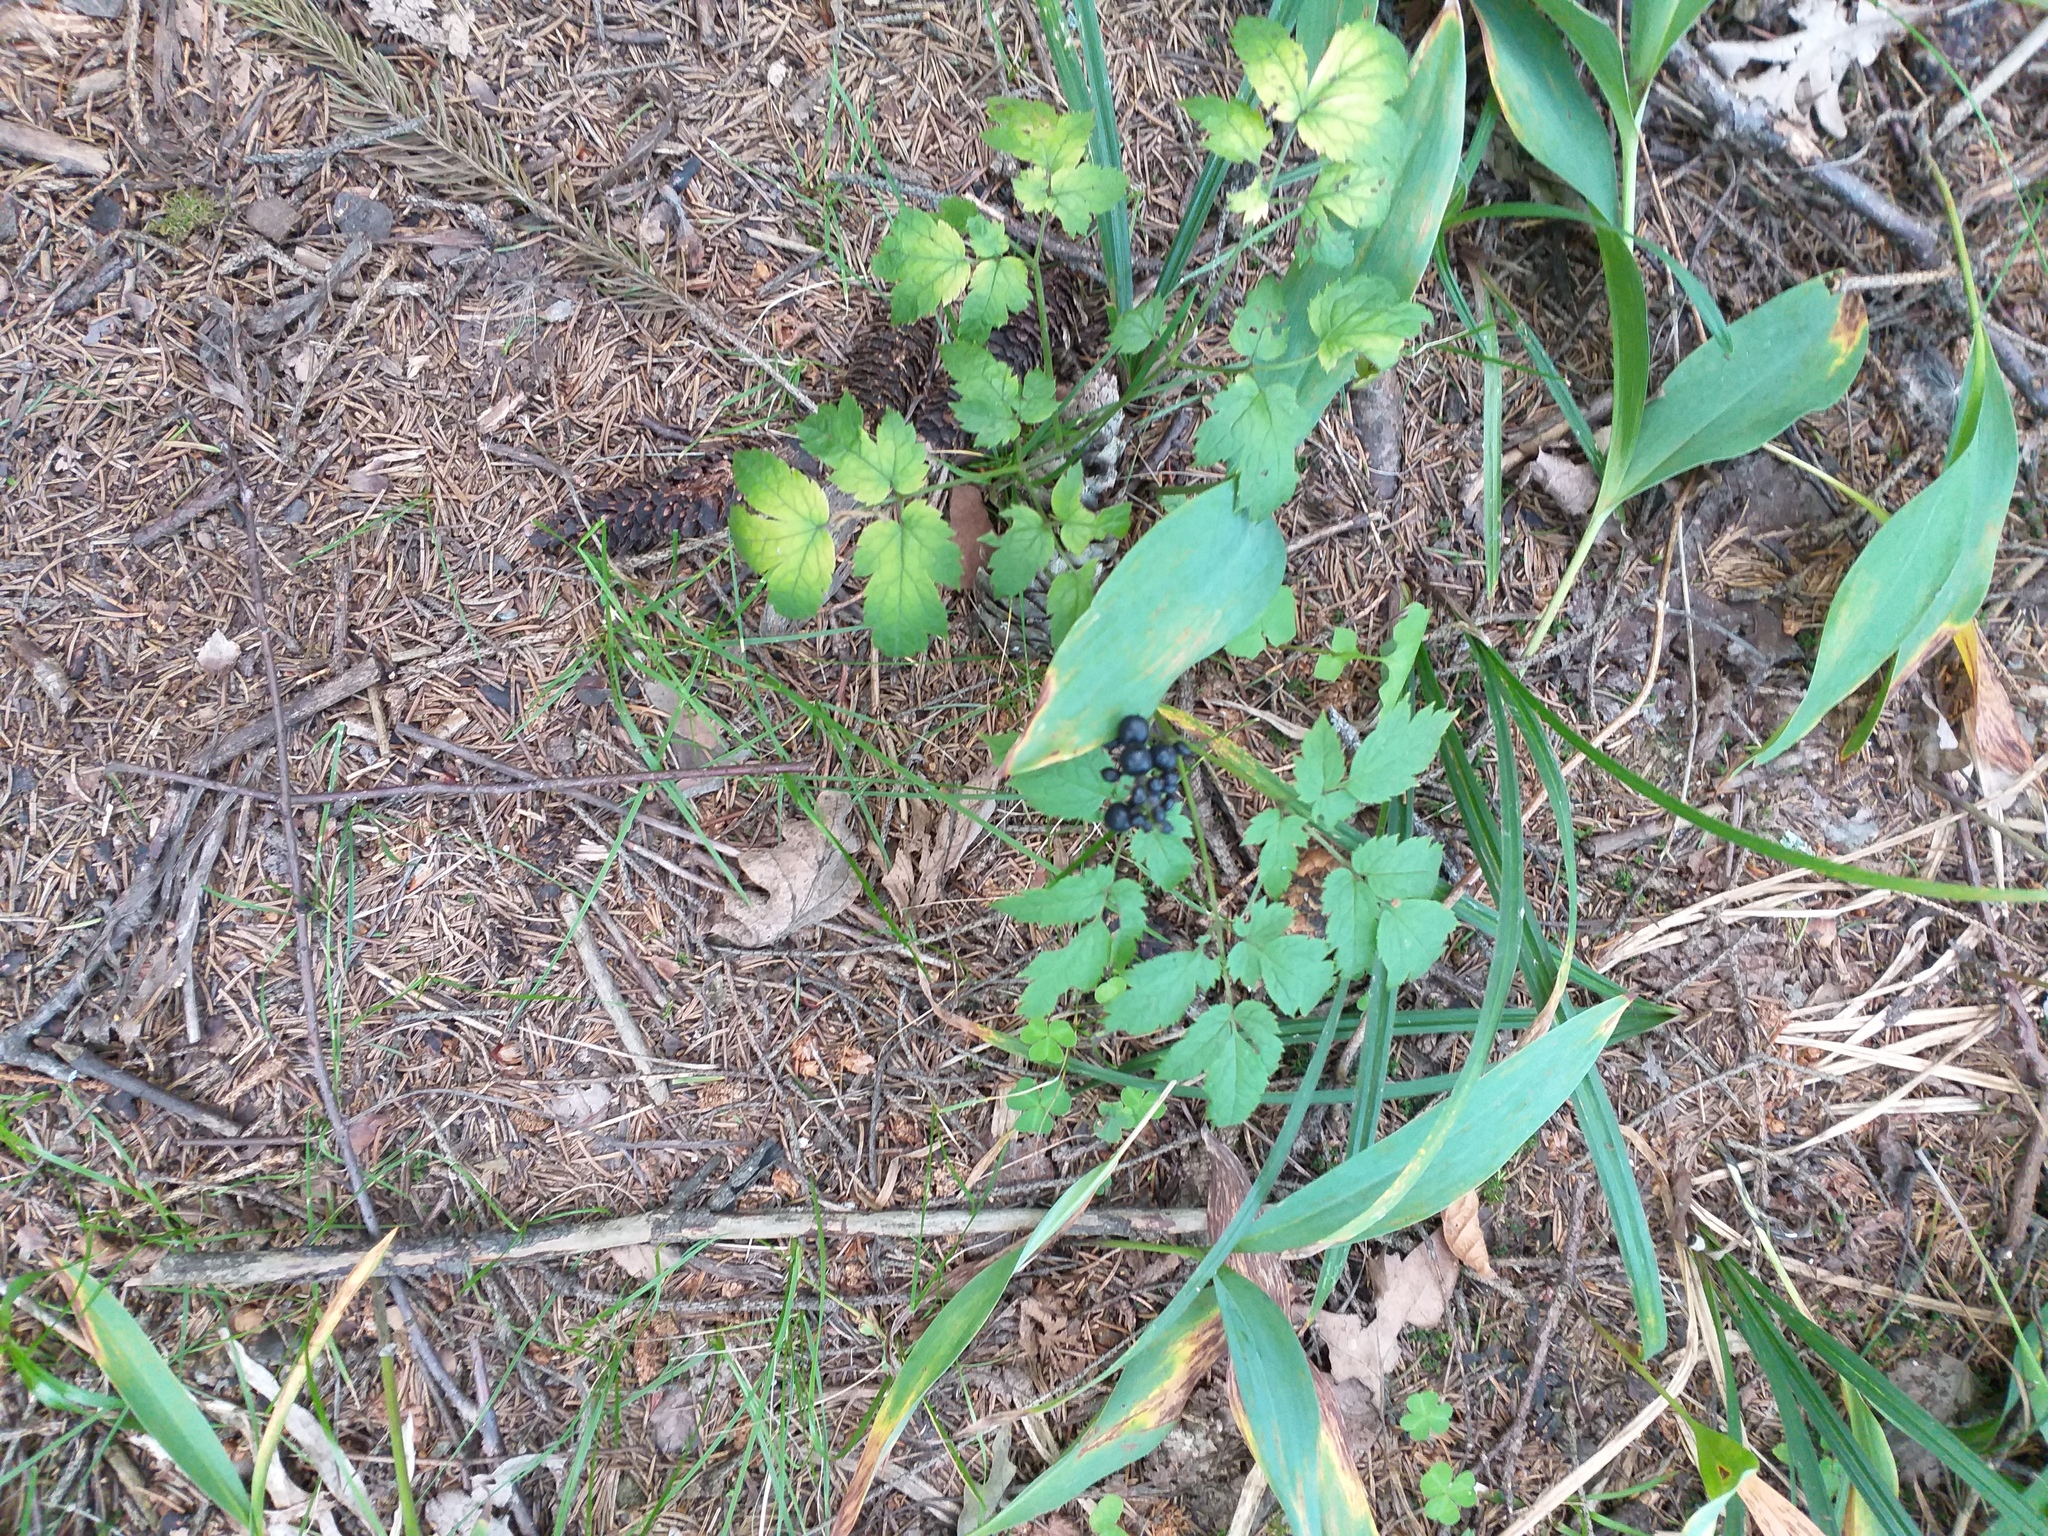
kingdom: Plantae
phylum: Tracheophyta
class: Magnoliopsida
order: Ranunculales
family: Ranunculaceae
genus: Actaea
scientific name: Actaea spicata
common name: Baneberry
